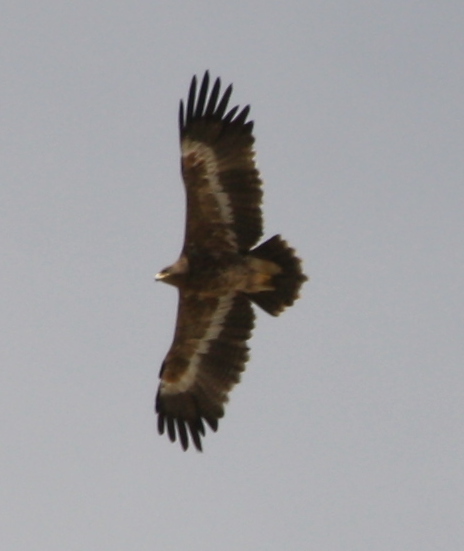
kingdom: Animalia
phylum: Chordata
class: Aves
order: Accipitriformes
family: Accipitridae
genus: Aquila
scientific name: Aquila nipalensis
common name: Steppe eagle
